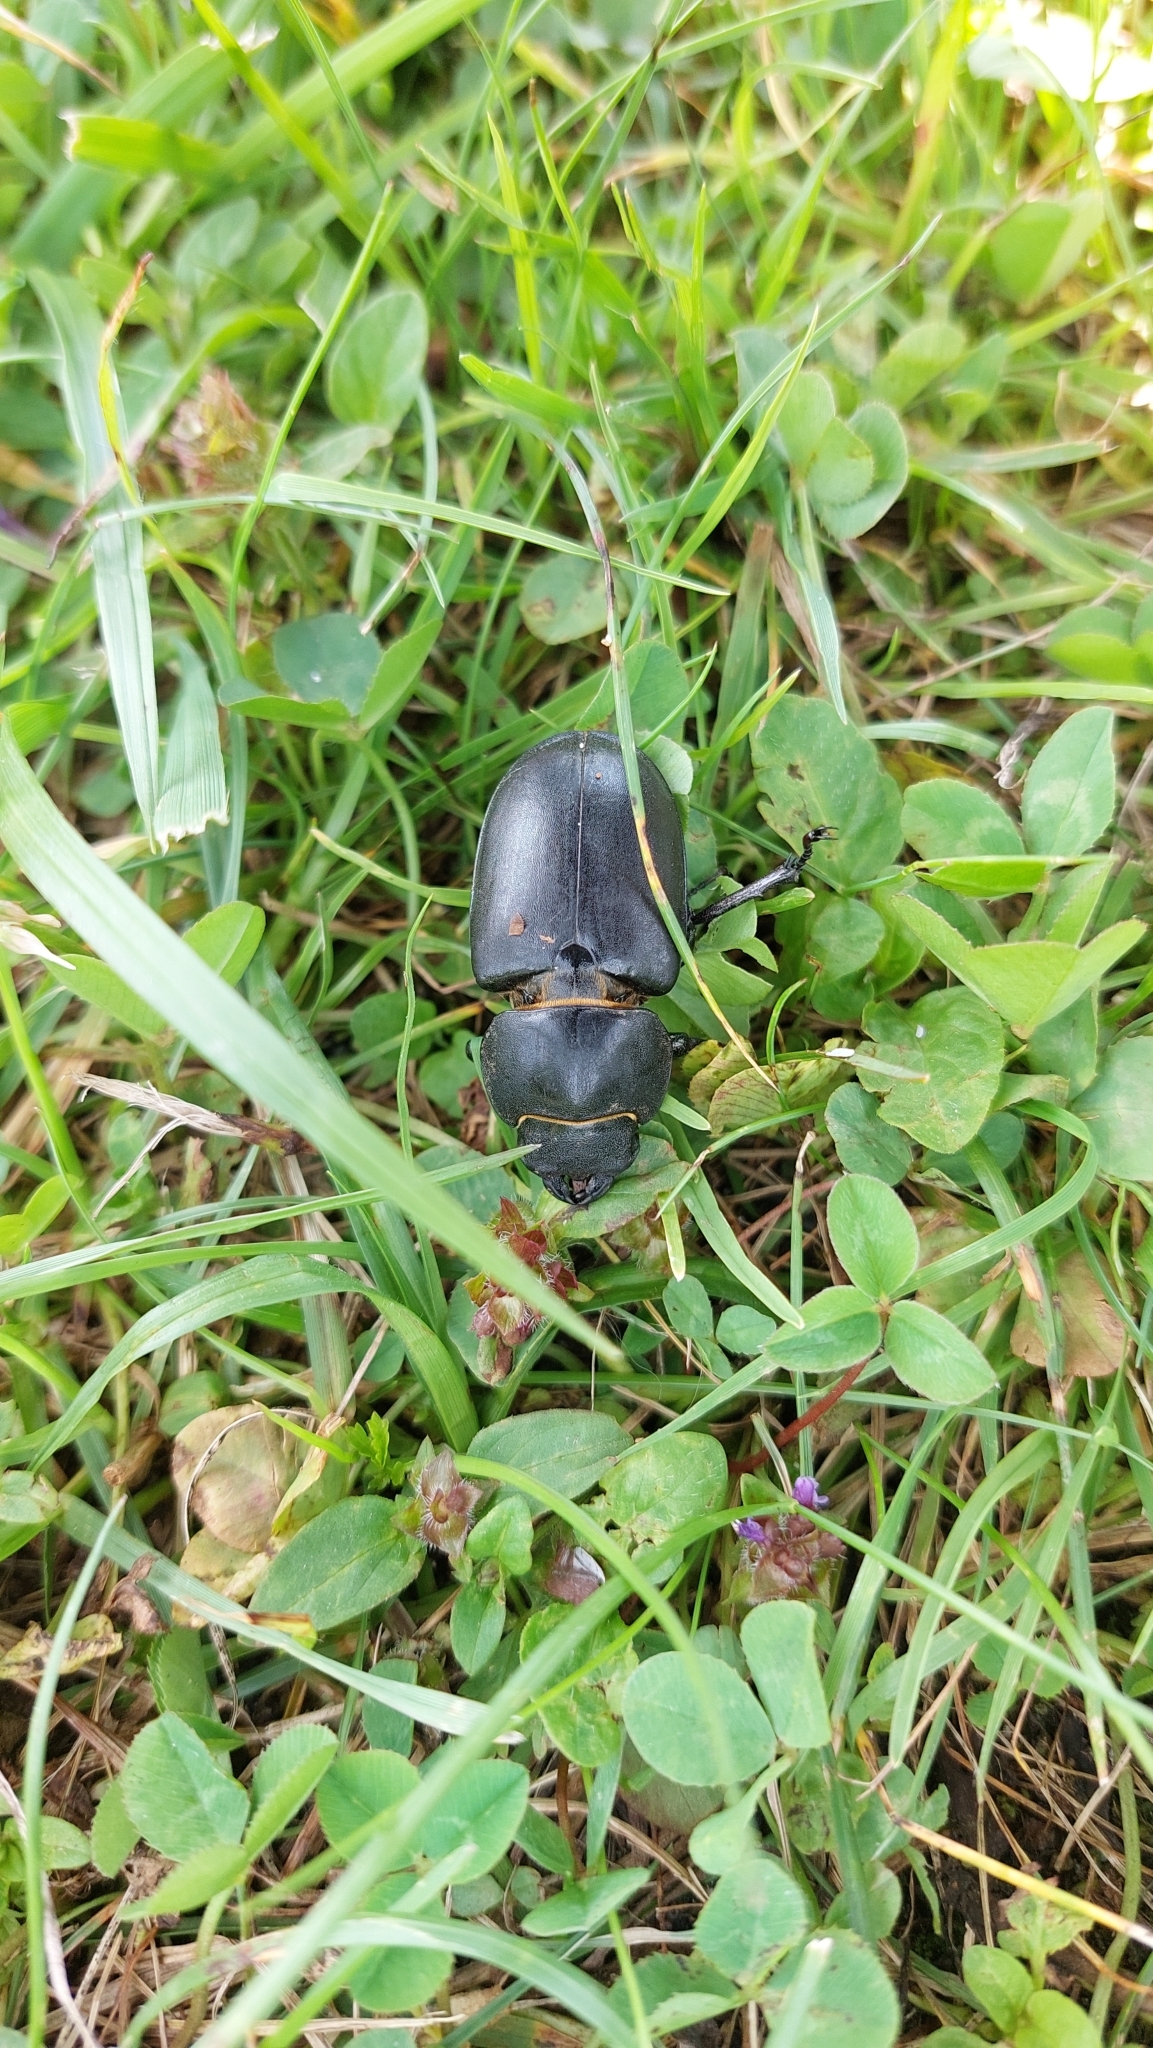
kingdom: Animalia
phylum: Arthropoda
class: Insecta
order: Coleoptera
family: Lucanidae
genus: Lucanus
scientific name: Lucanus cervus
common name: Stag beetle
